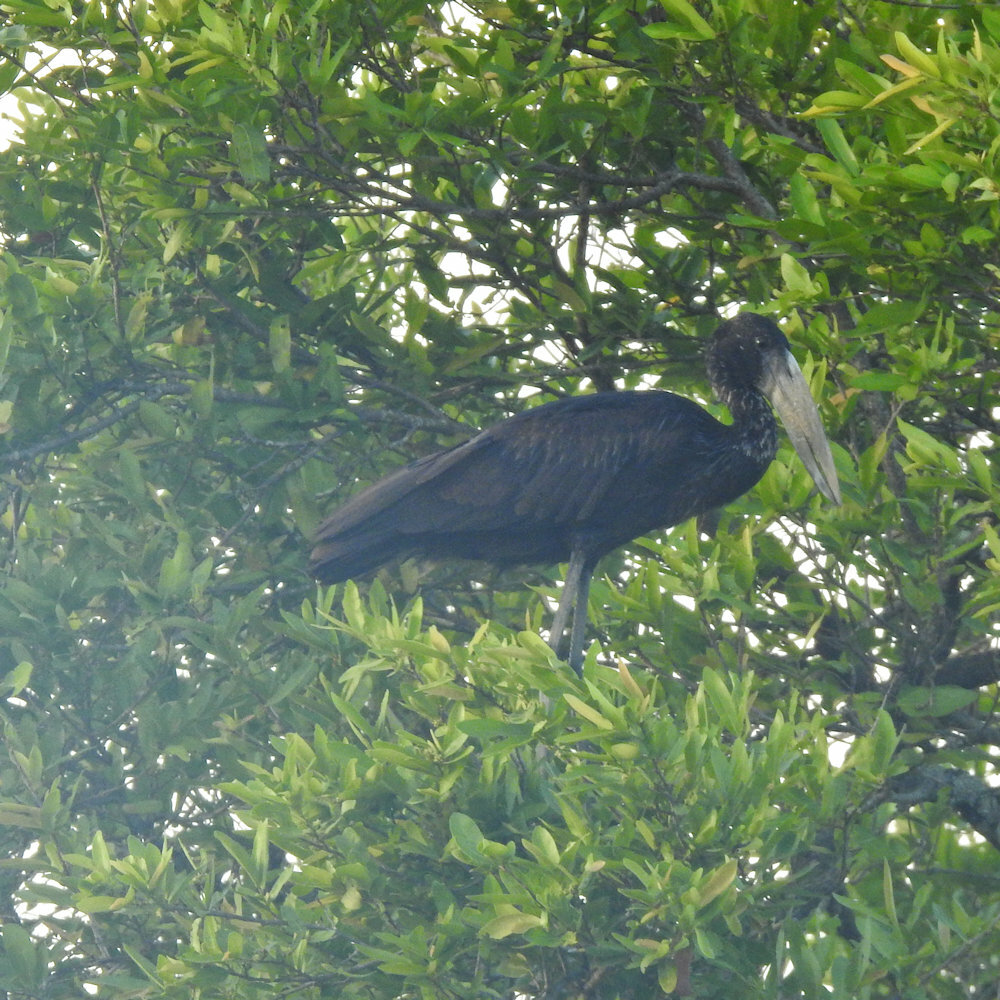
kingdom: Animalia
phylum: Chordata
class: Aves
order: Ciconiiformes
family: Ciconiidae
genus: Anastomus
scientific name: Anastomus lamelligerus
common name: African openbill
